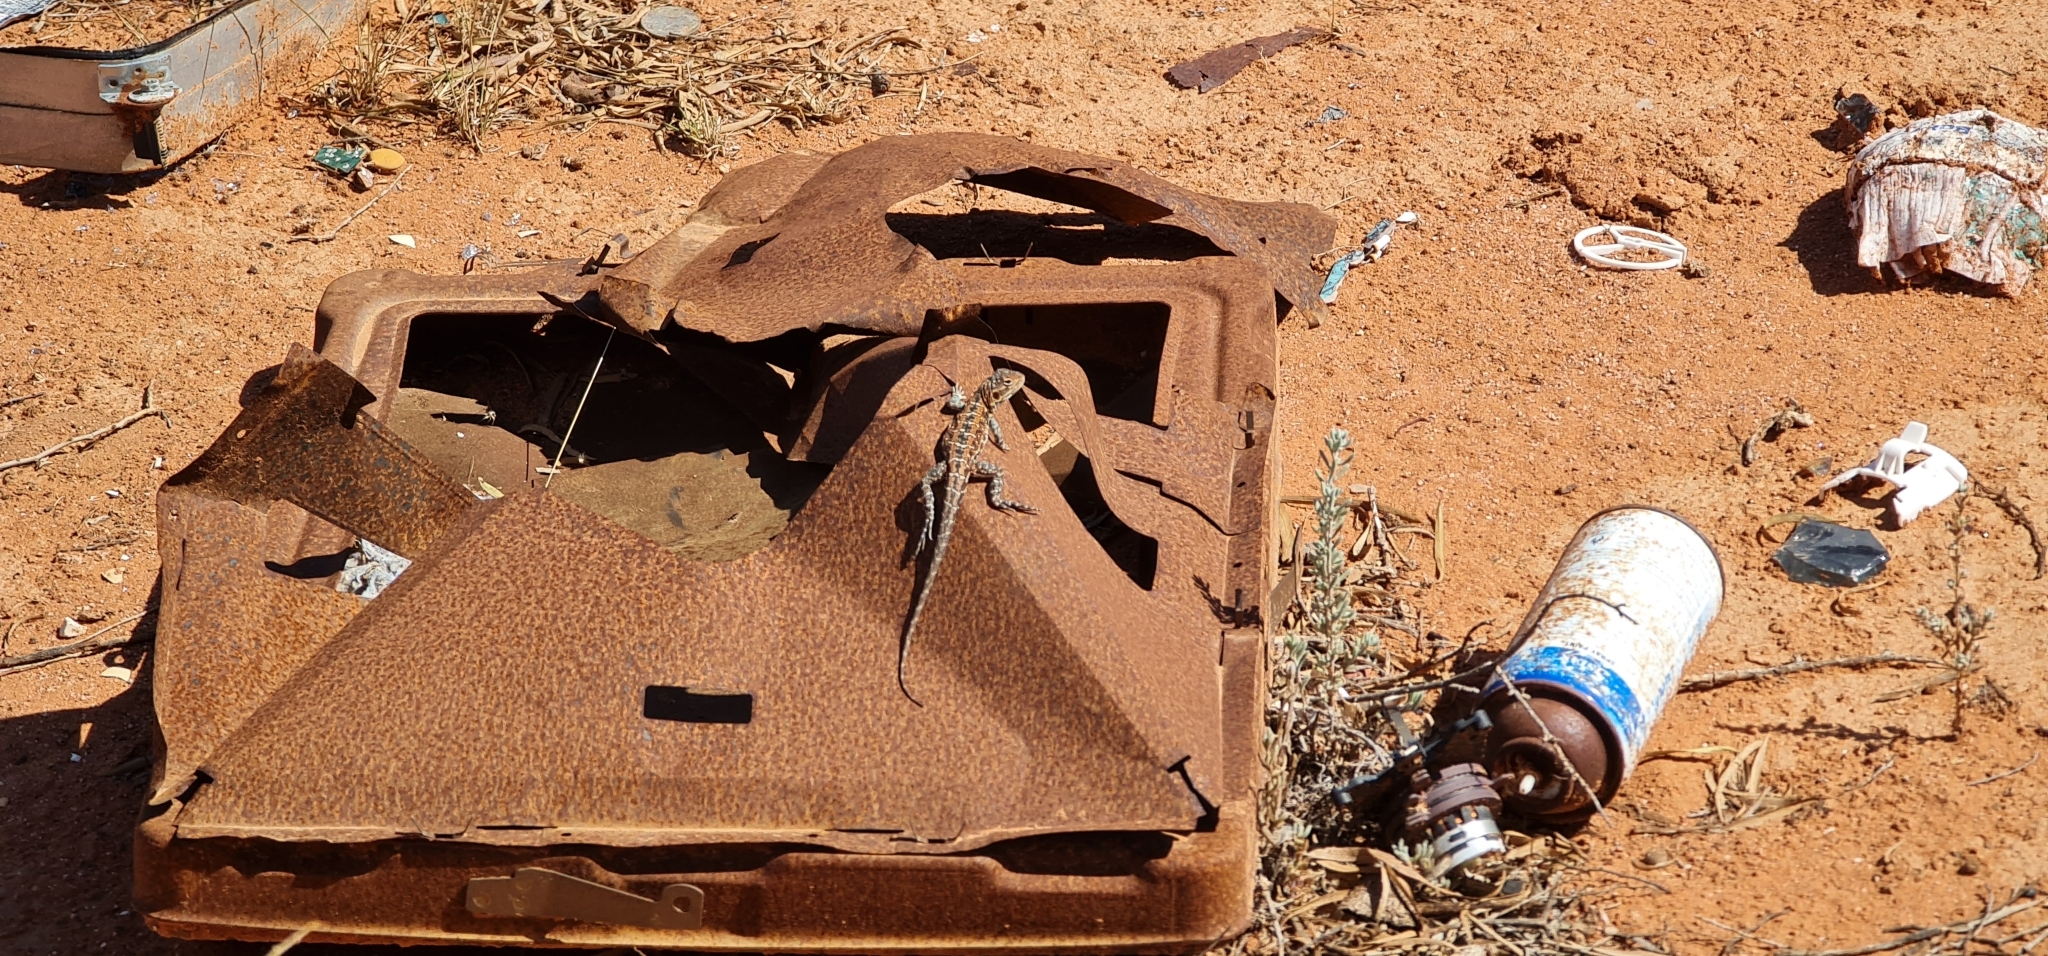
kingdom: Animalia
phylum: Chordata
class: Squamata
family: Agamidae
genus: Ctenophorus
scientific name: Ctenophorus pictus
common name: Painted dragon
